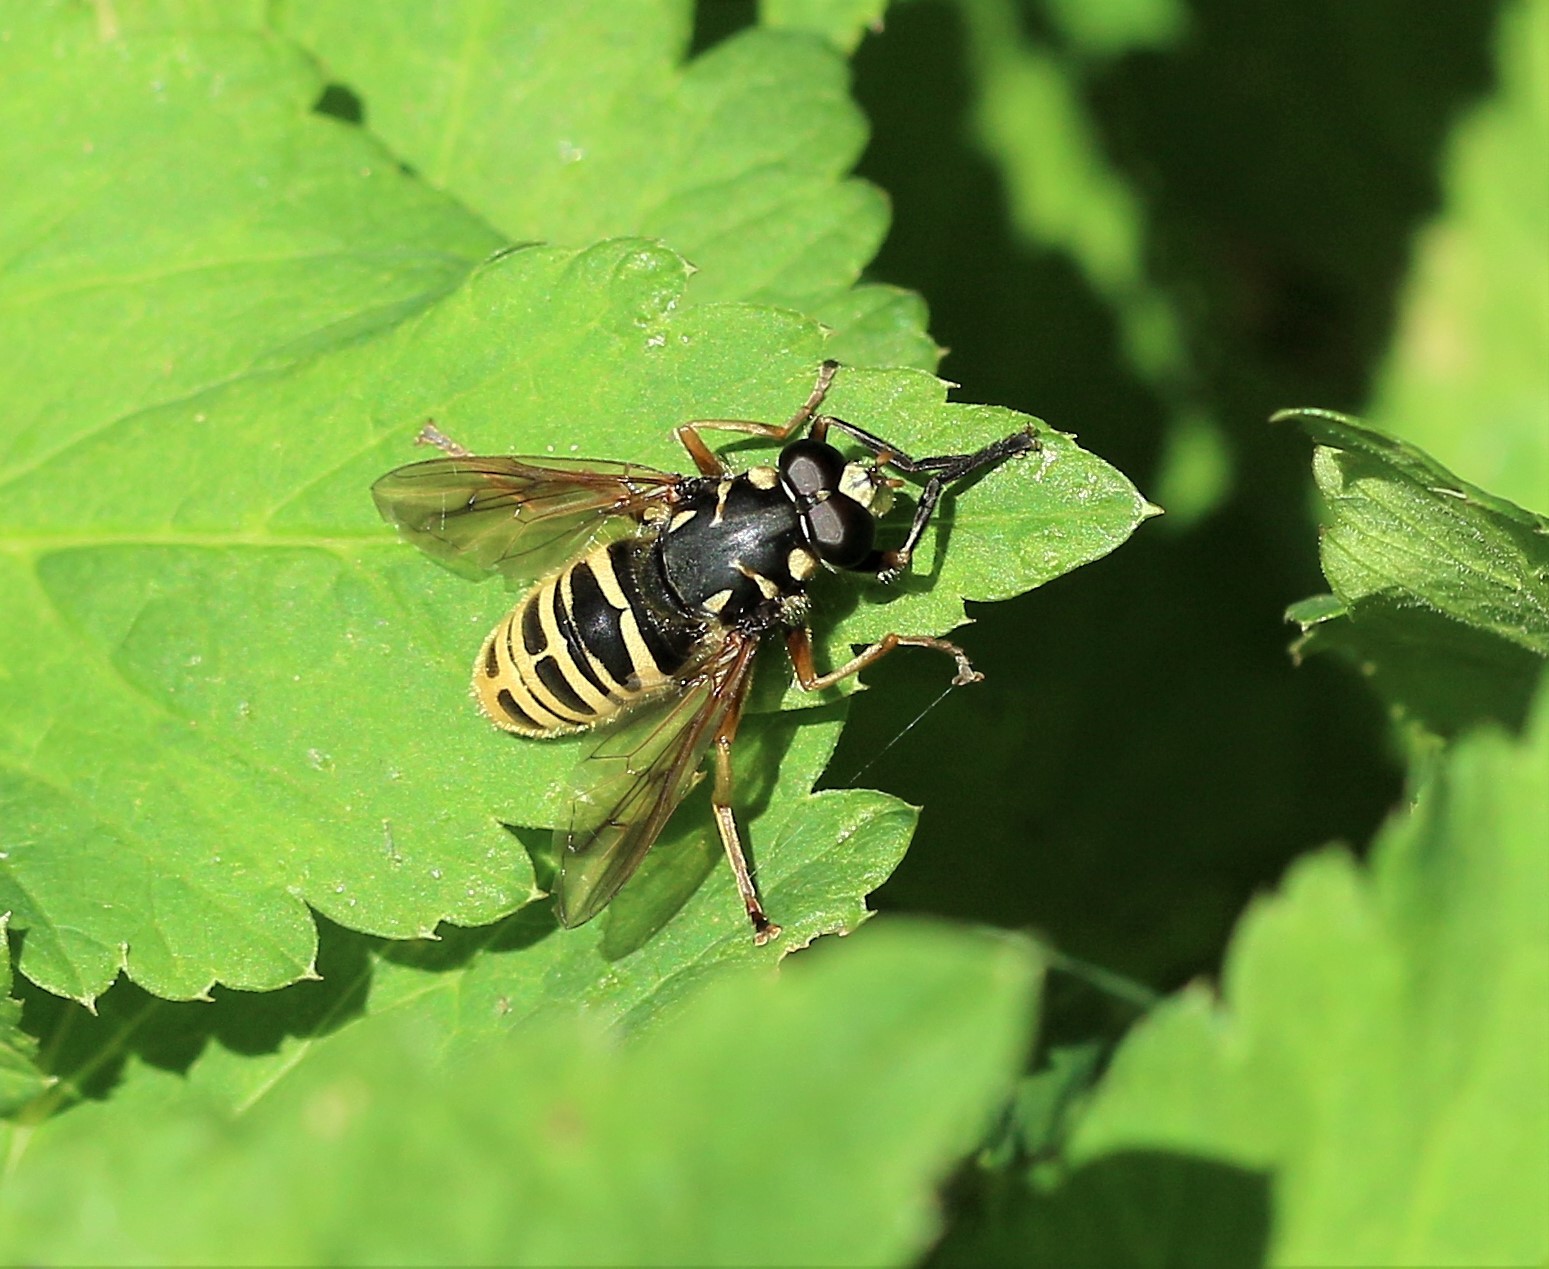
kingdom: Animalia
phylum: Arthropoda
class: Insecta
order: Diptera
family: Syrphidae
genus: Temnostoma
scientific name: Temnostoma excentricum
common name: Black-spotted falsehorn
